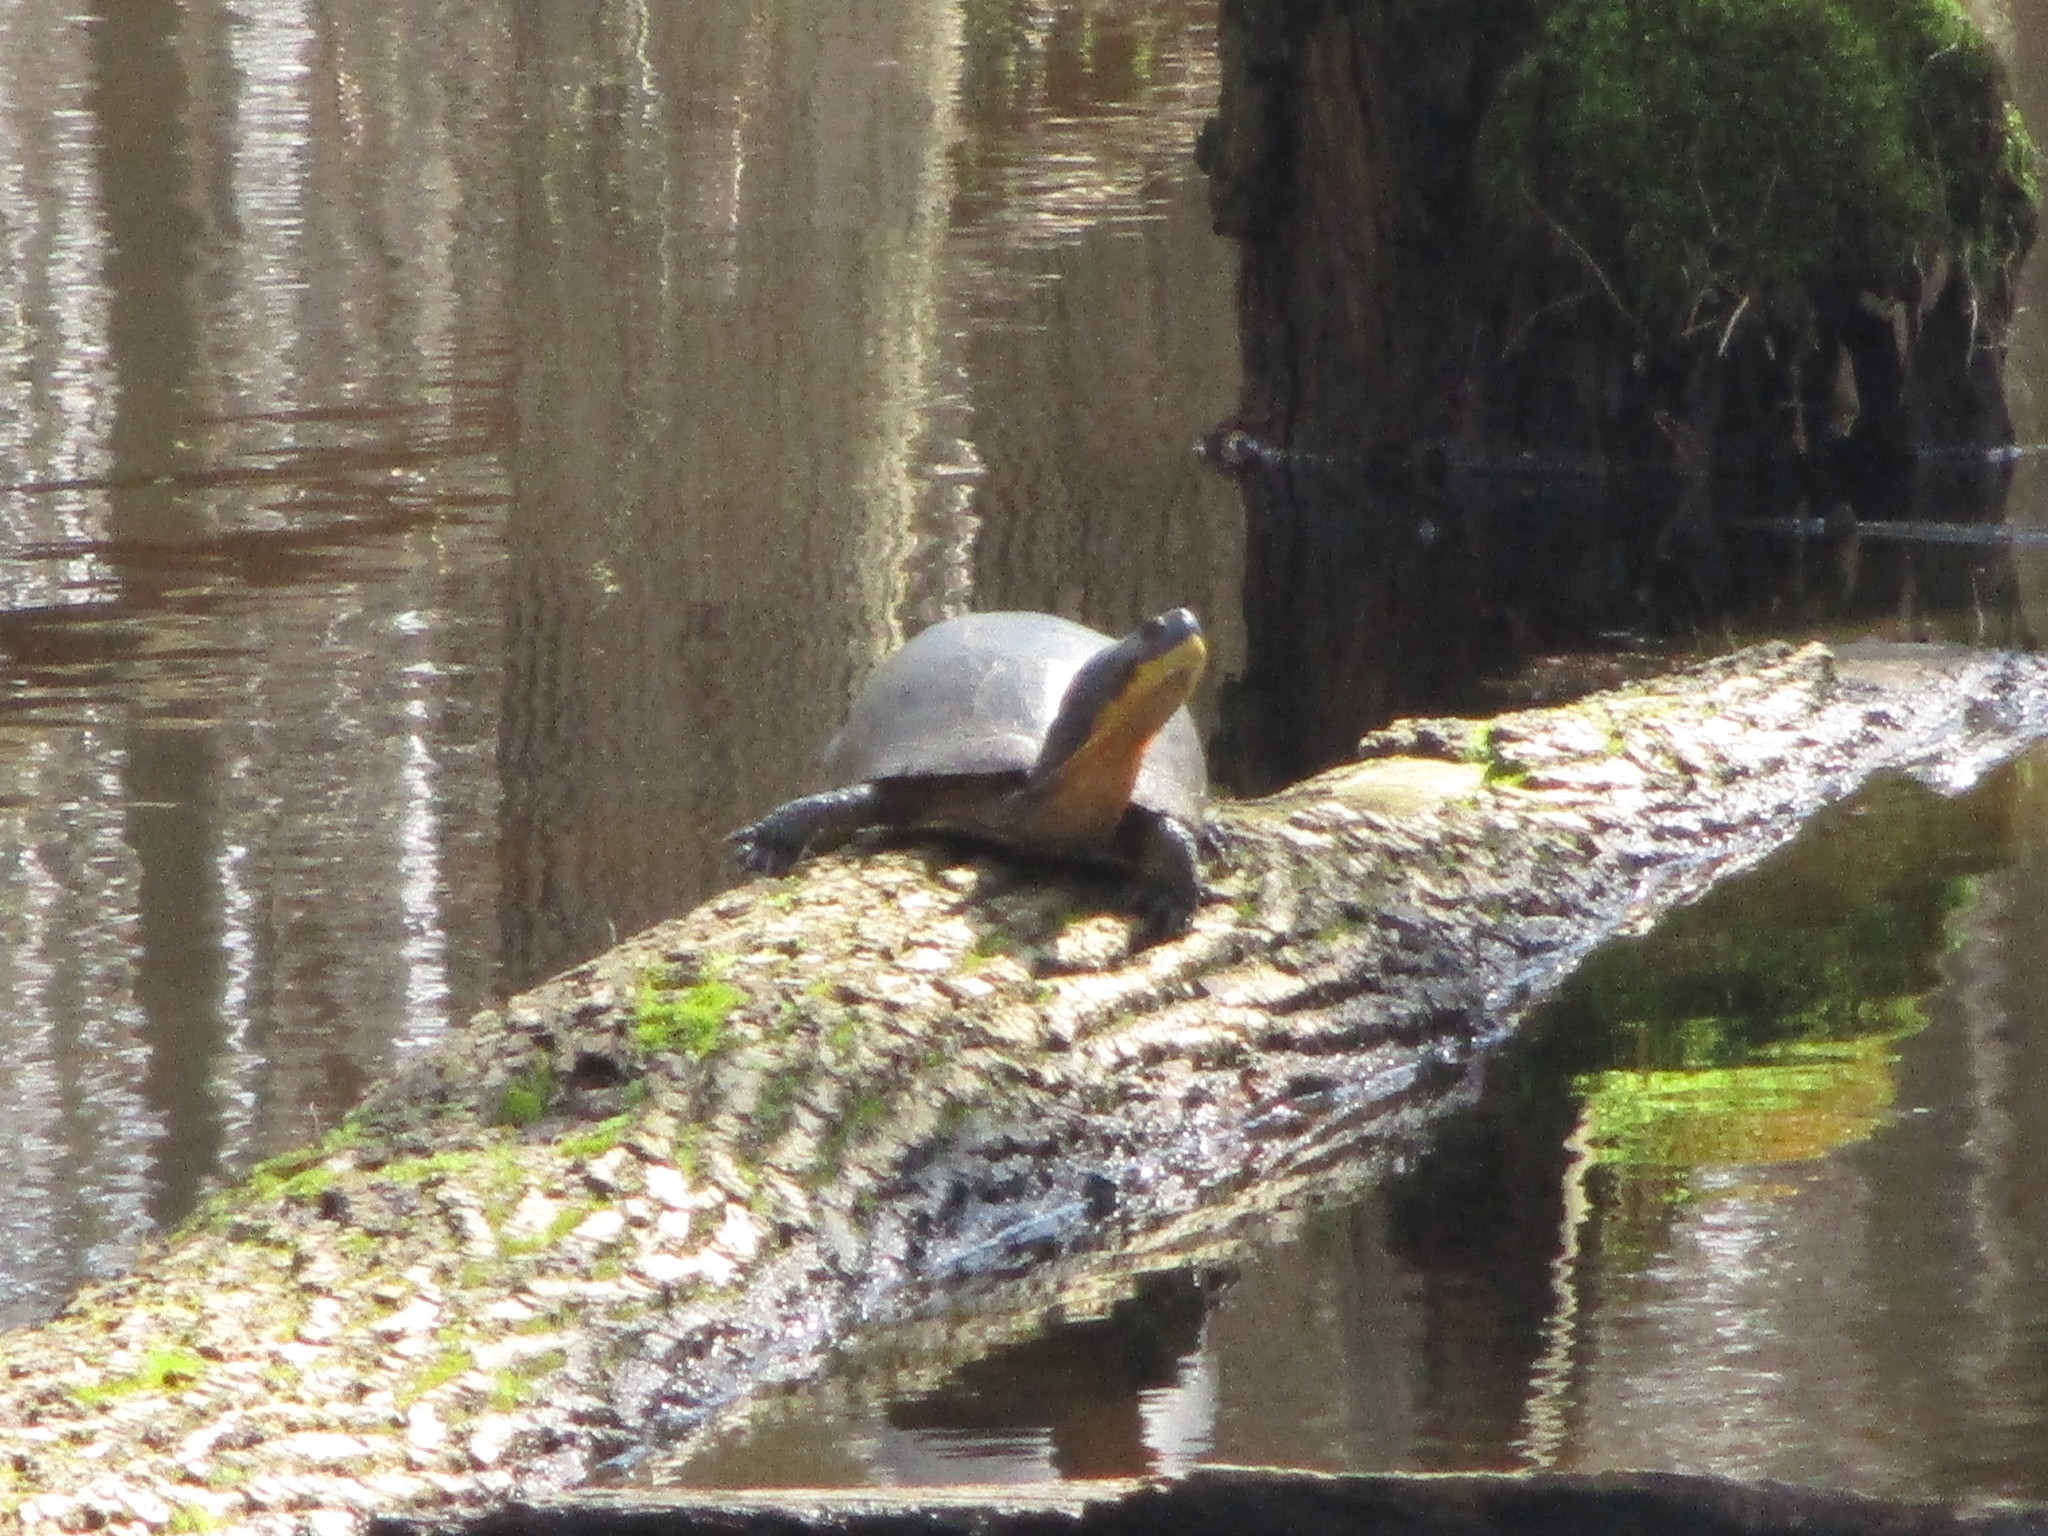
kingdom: Animalia
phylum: Chordata
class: Testudines
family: Emydidae
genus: Emys
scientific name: Emys blandingii
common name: Blanding's turtle
